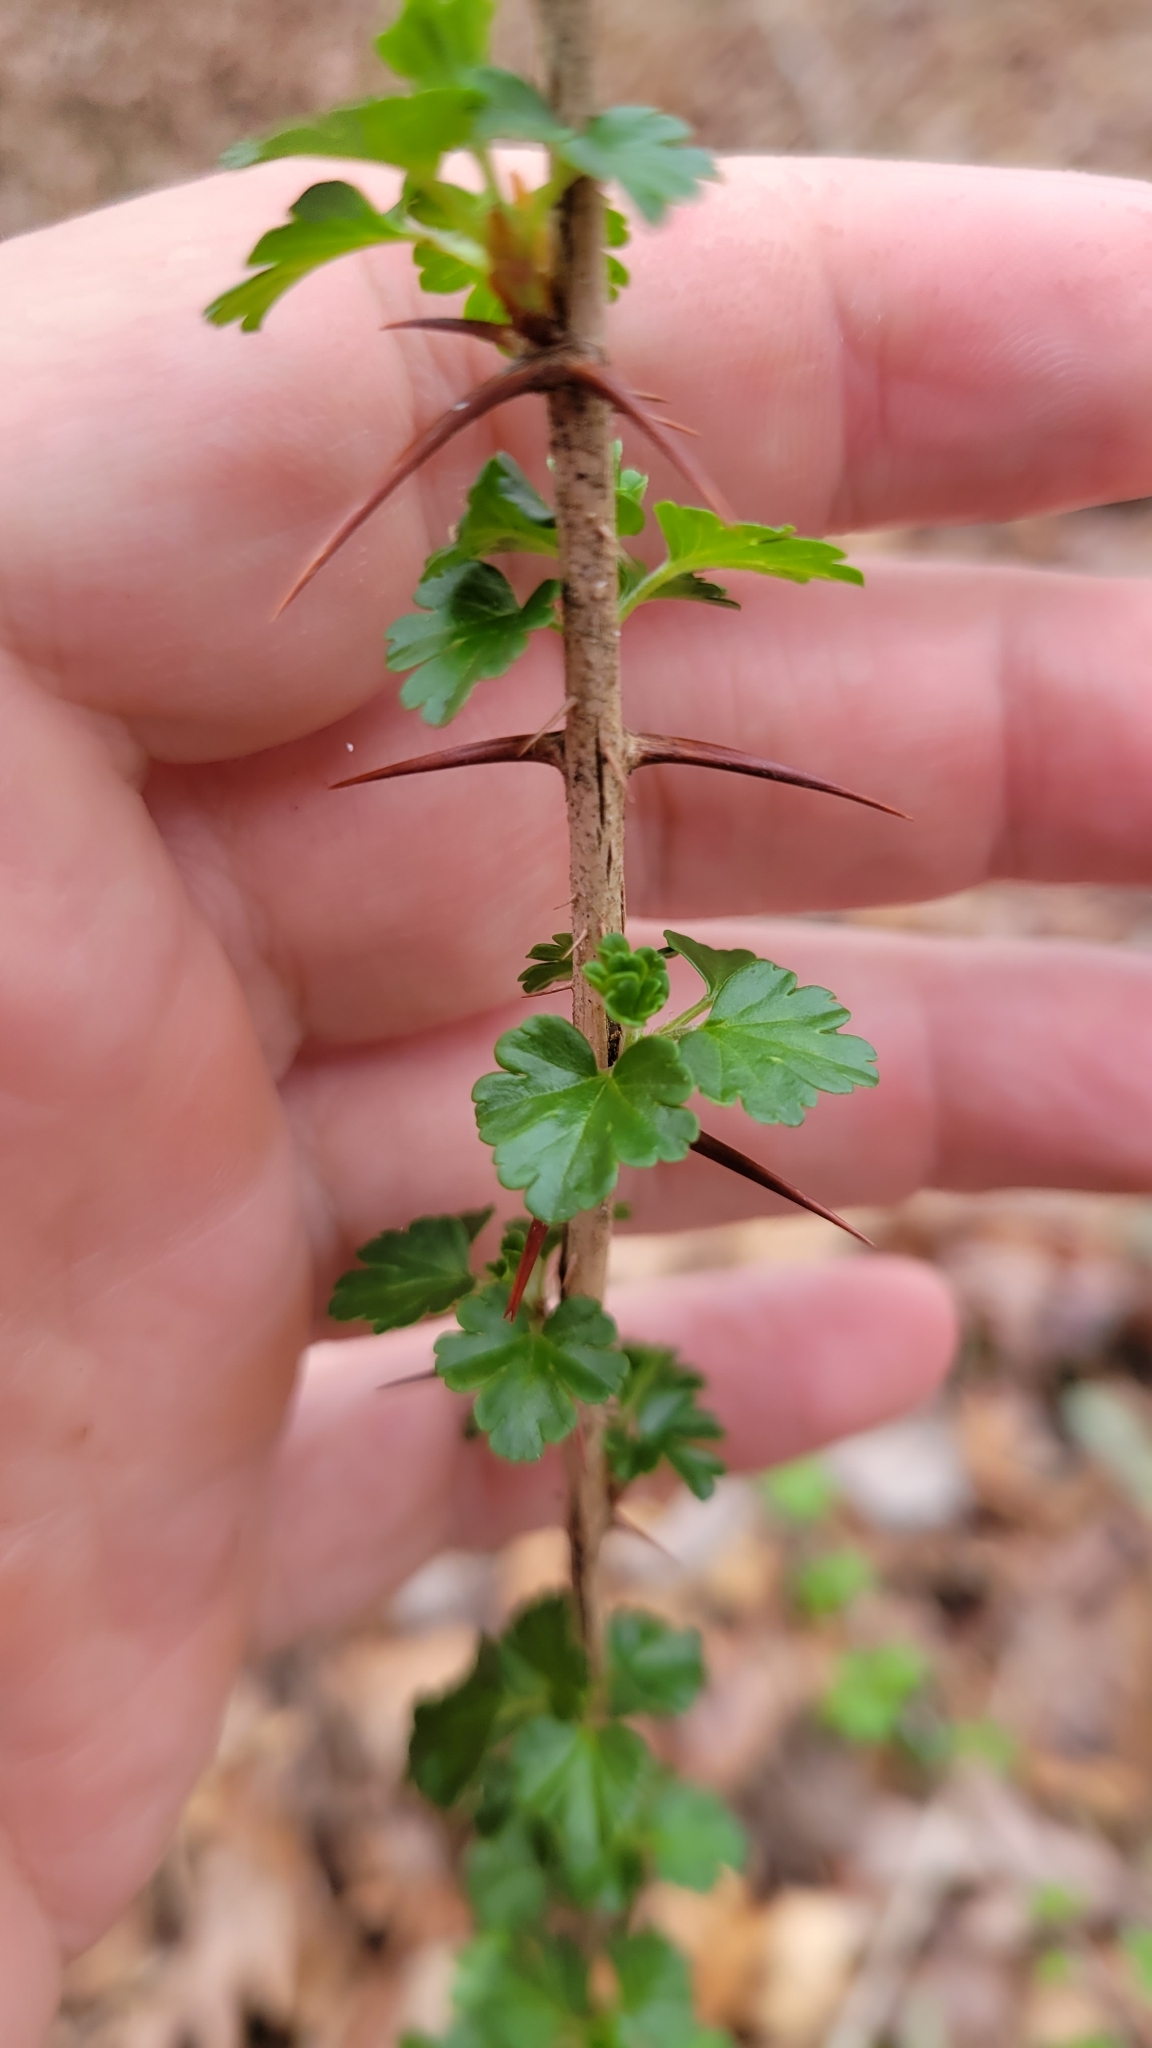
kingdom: Plantae
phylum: Tracheophyta
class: Magnoliopsida
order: Saxifragales
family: Grossulariaceae
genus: Ribes
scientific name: Ribes echinellum
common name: Miccosukee gooseberry
